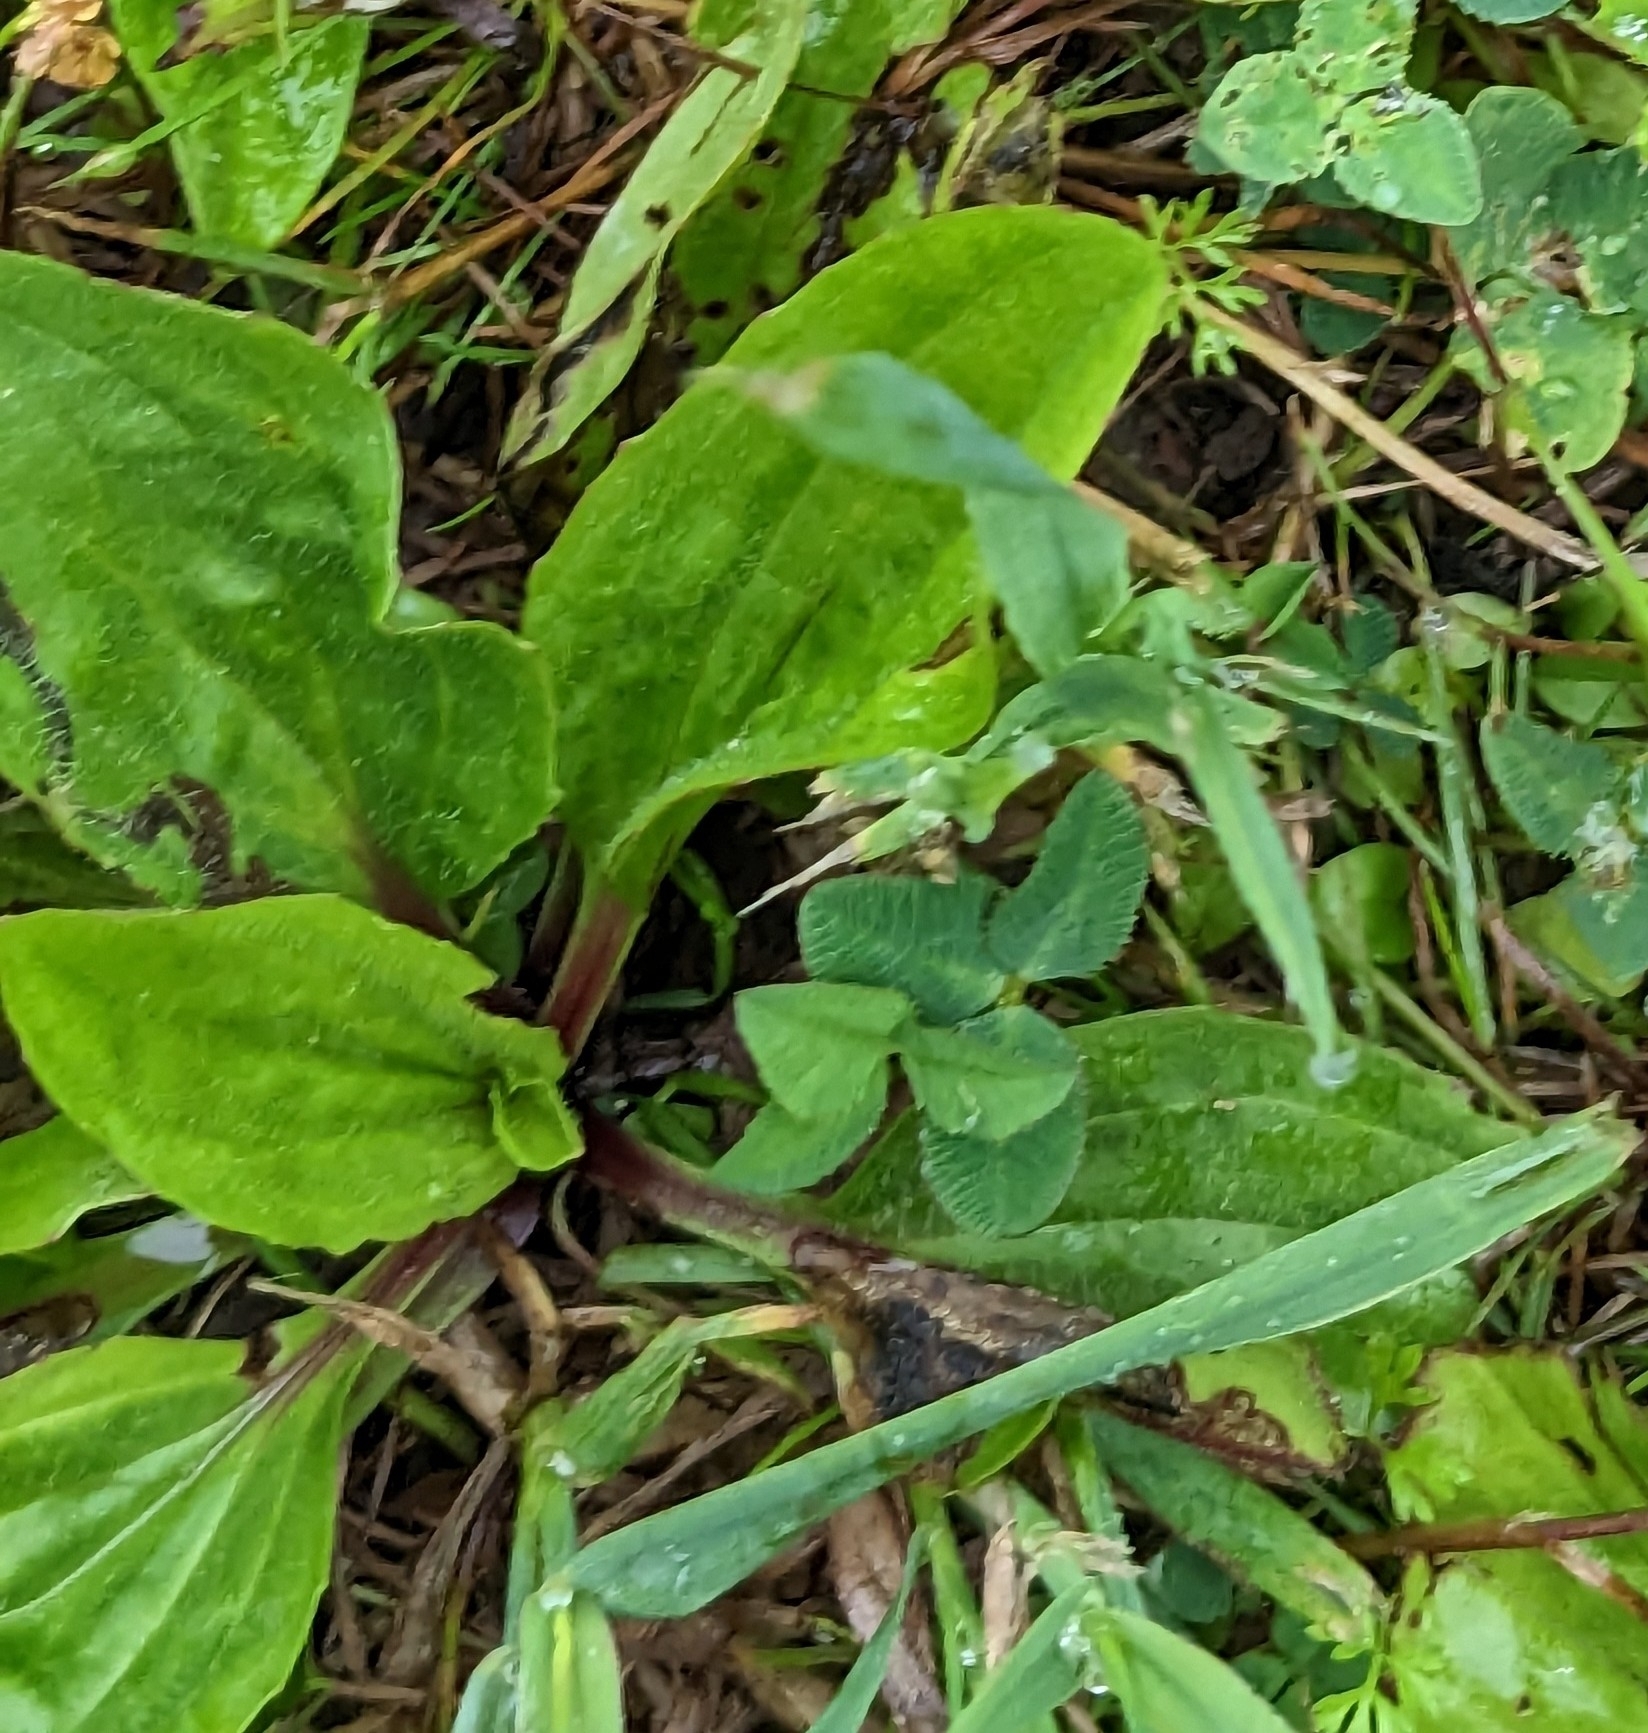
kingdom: Plantae
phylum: Tracheophyta
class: Magnoliopsida
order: Lamiales
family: Plantaginaceae
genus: Plantago
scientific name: Plantago rugelii
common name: American plantain
